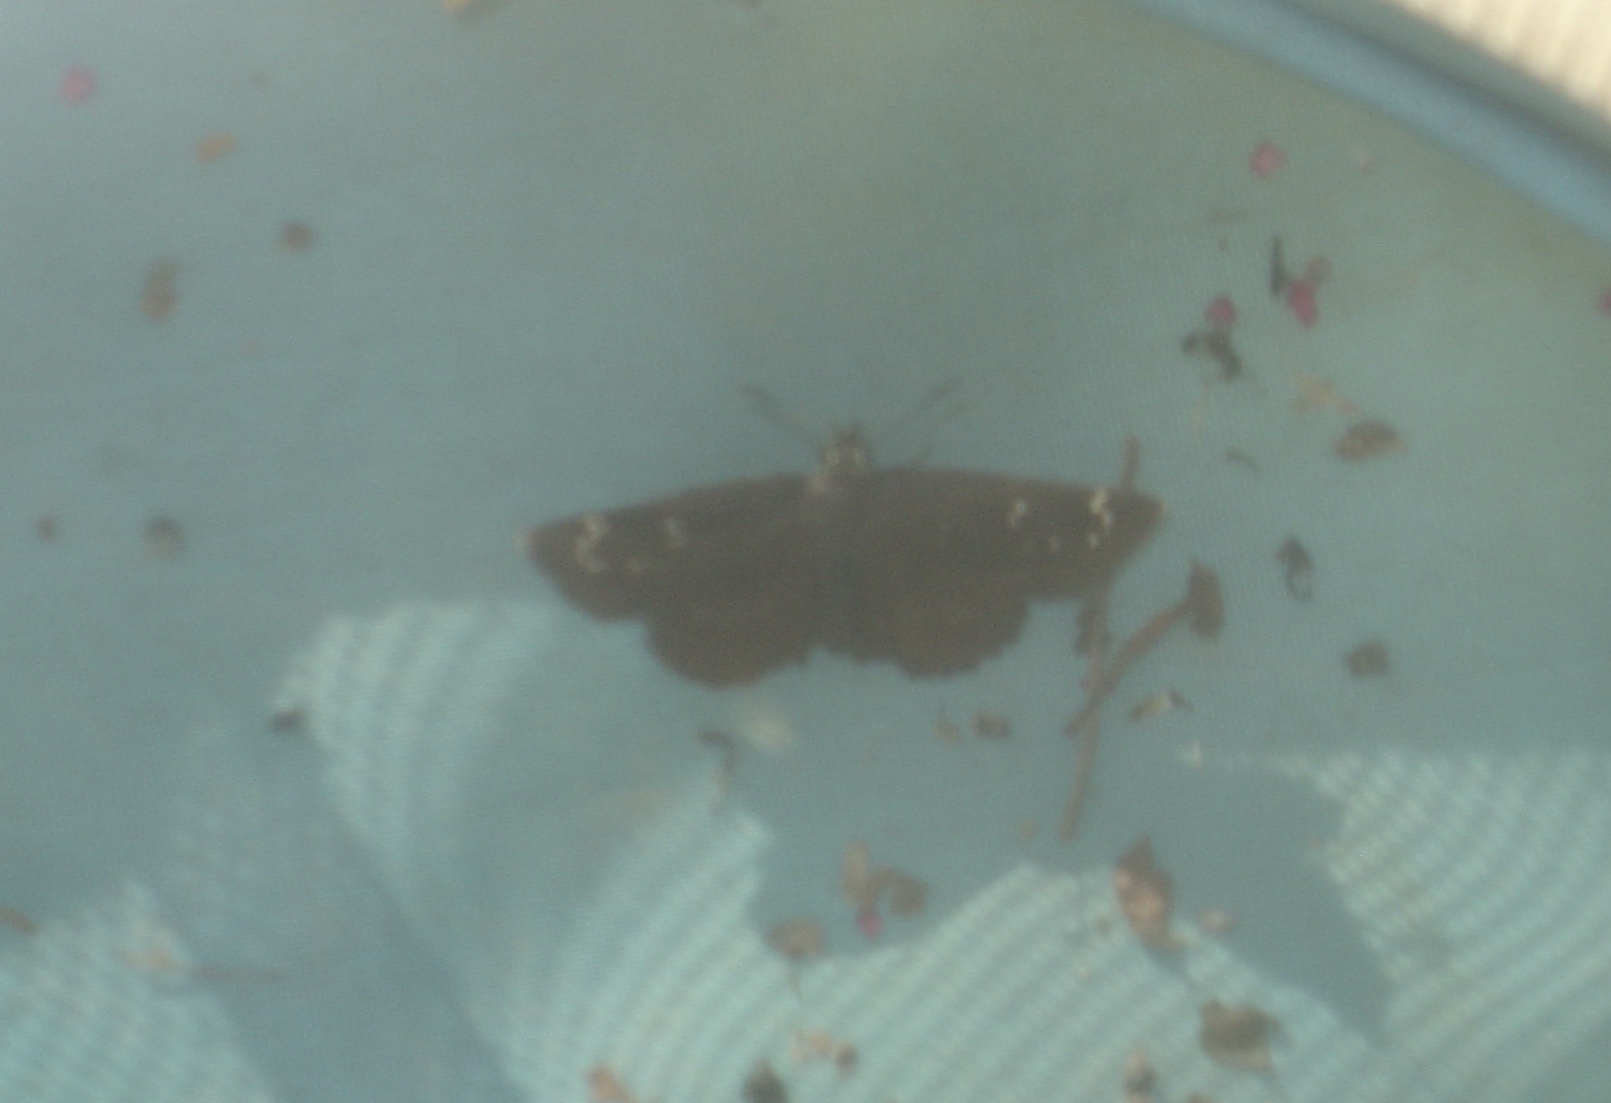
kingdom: Animalia
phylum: Arthropoda
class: Insecta
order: Lepidoptera
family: Hesperiidae
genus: Pholisora
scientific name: Pholisora catullus
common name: Common sootywing
